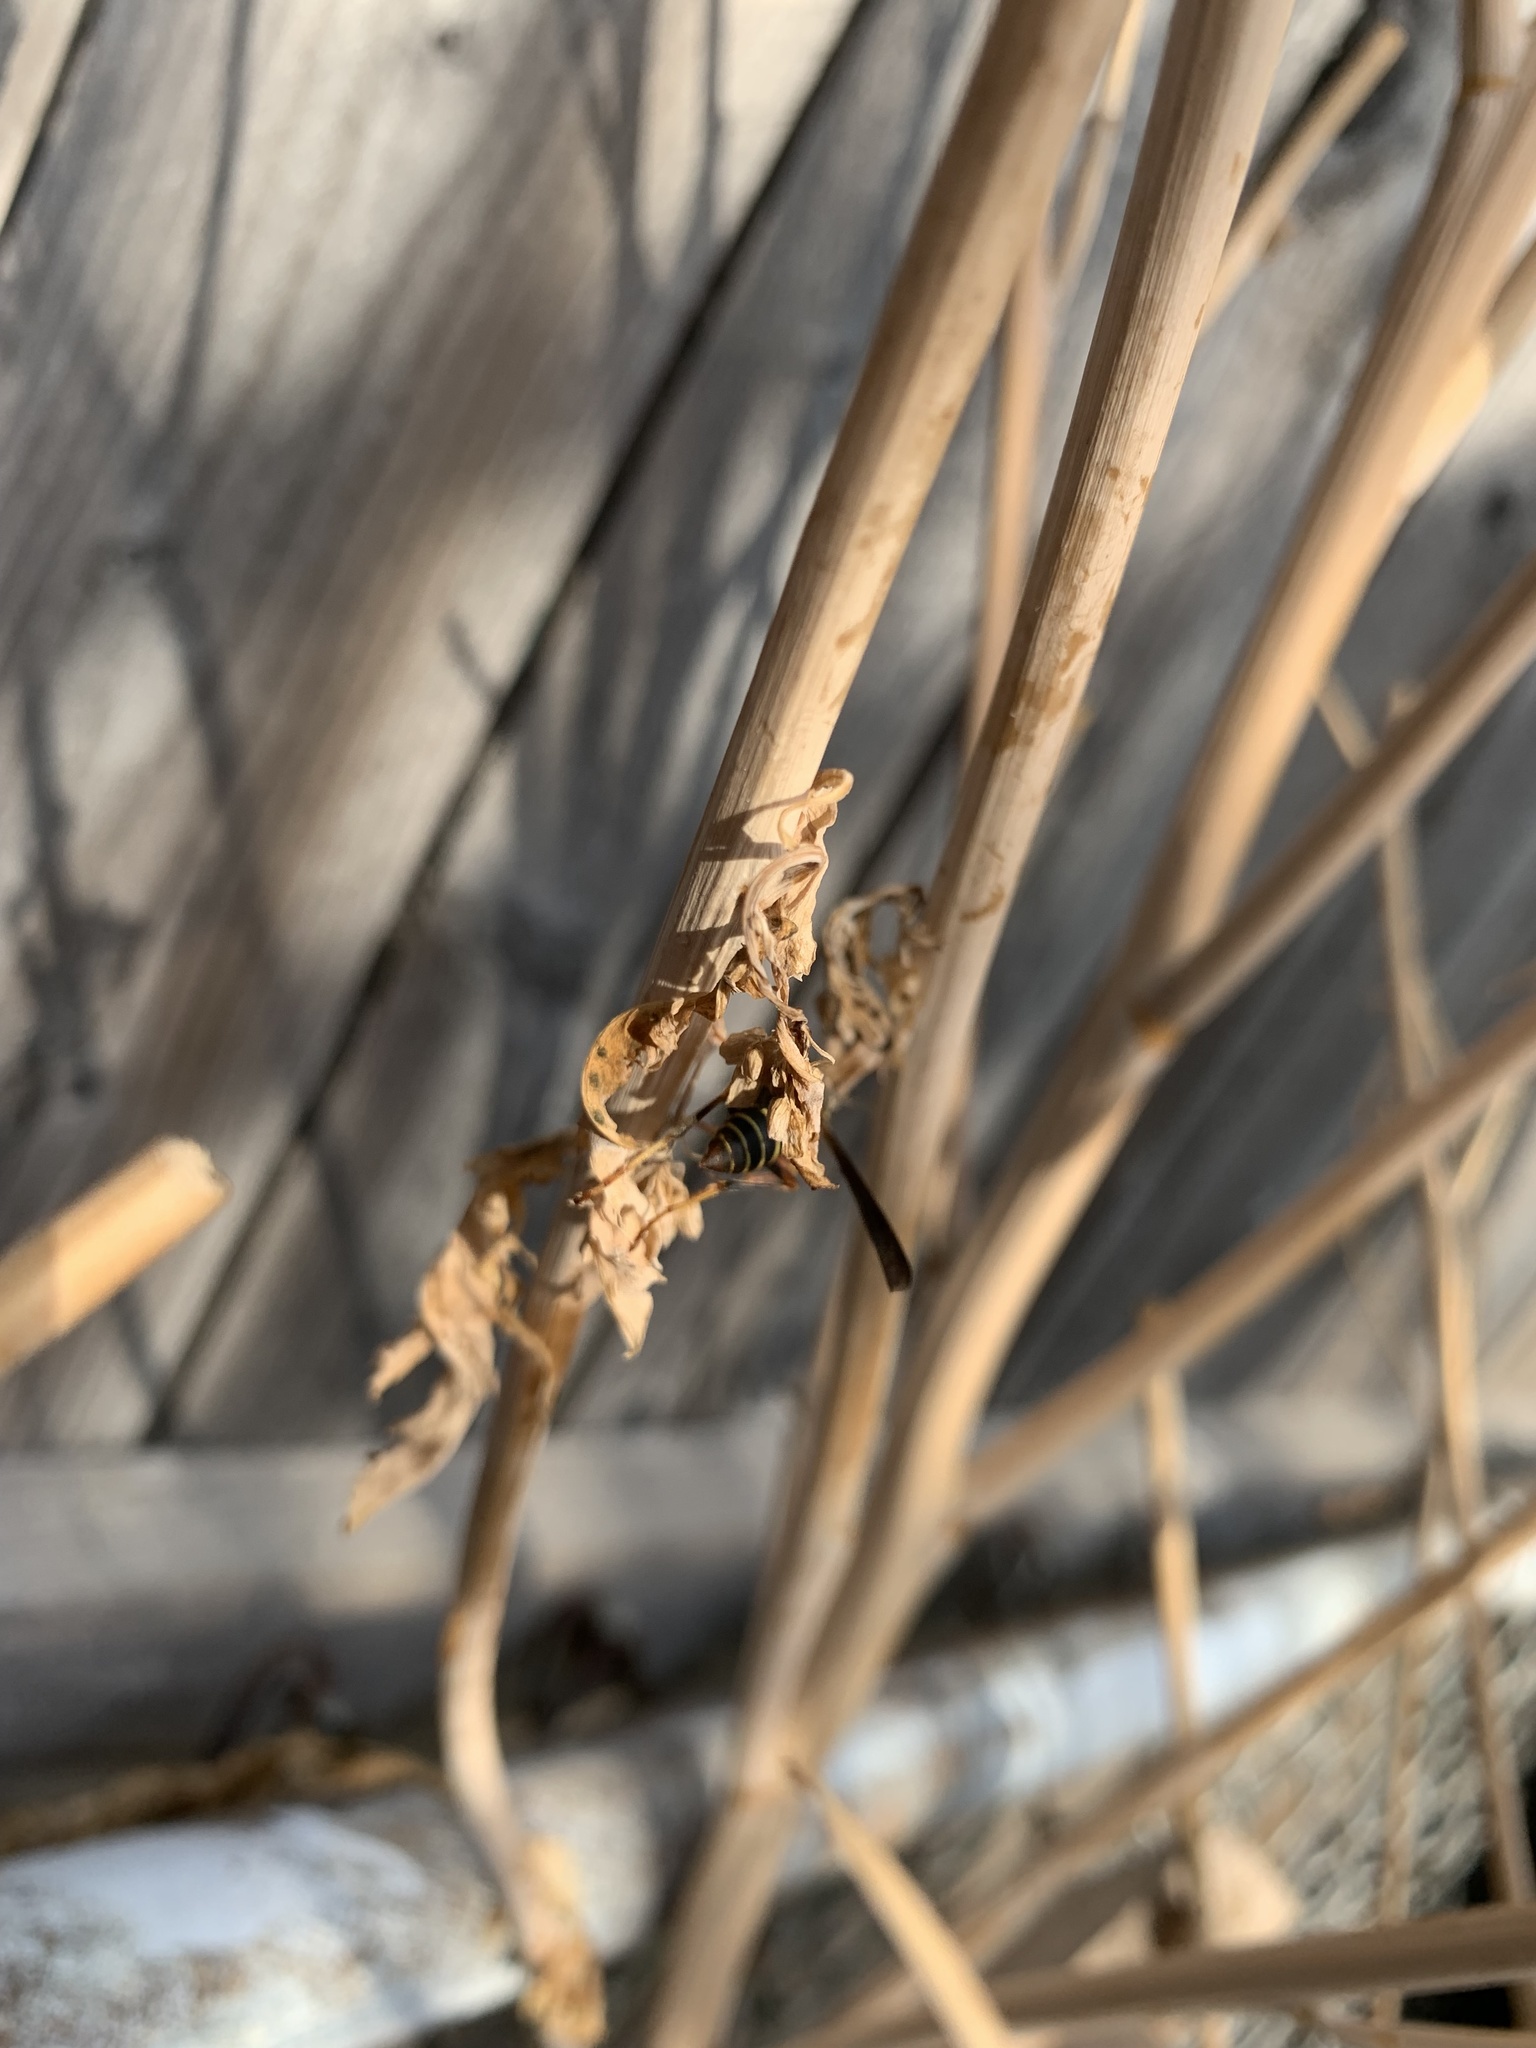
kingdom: Animalia
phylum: Arthropoda
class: Insecta
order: Hymenoptera
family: Eumenidae
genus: Polistes
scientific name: Polistes fuscatus
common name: Dark paper wasp
